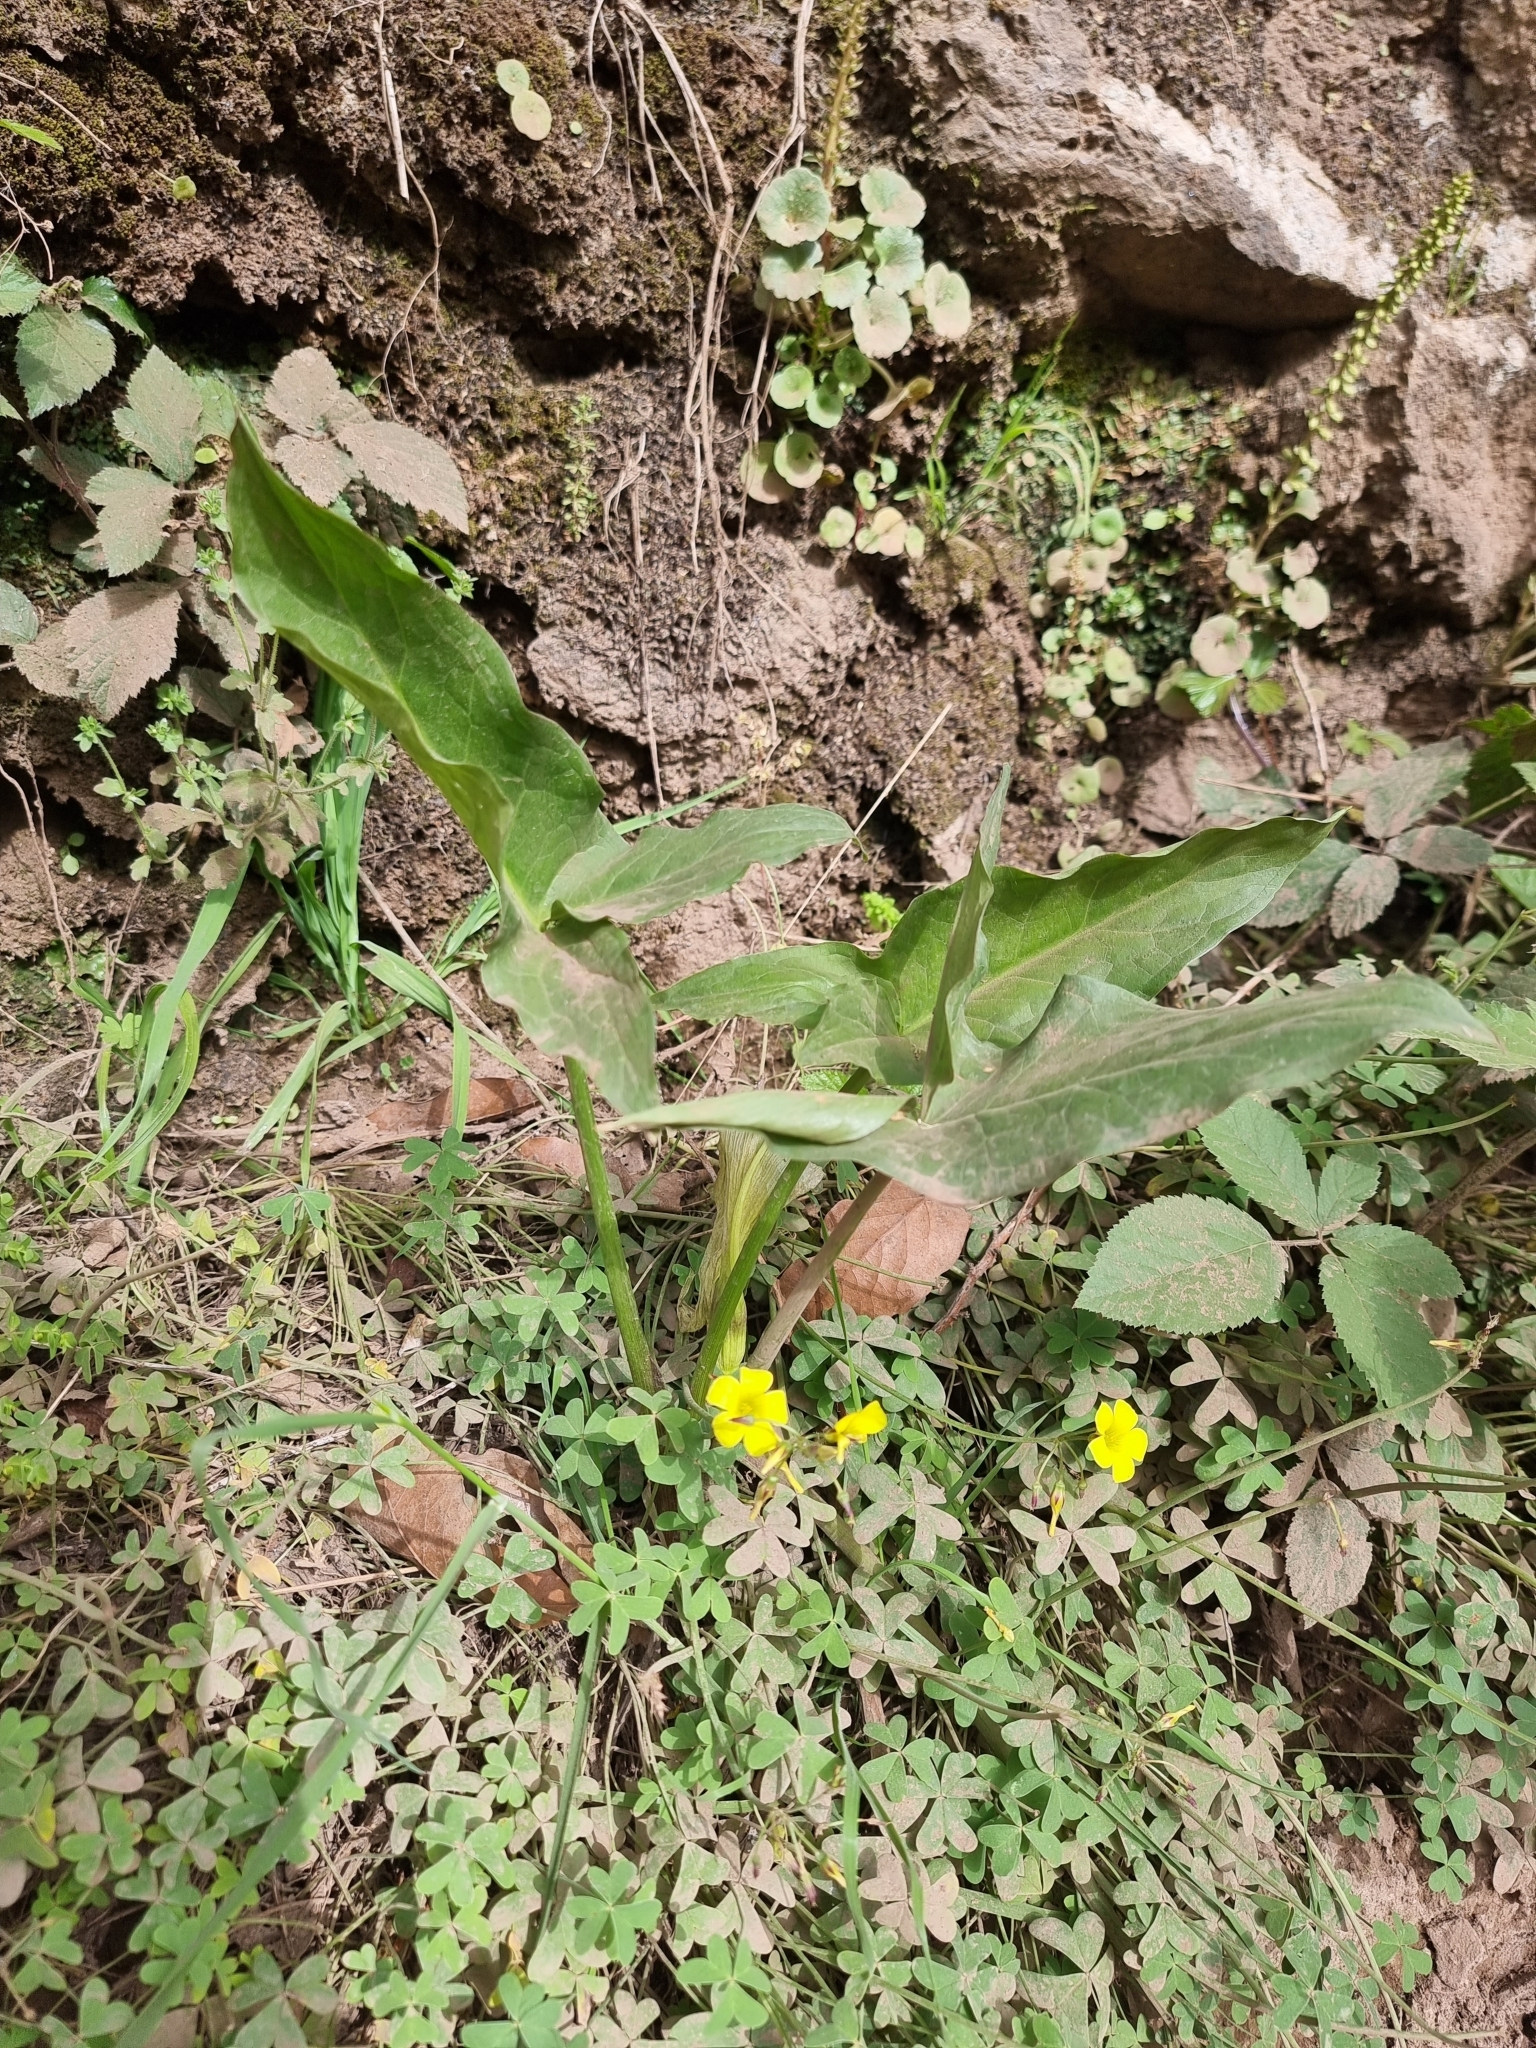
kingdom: Plantae
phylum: Tracheophyta
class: Liliopsida
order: Alismatales
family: Araceae
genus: Arum
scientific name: Arum italicum
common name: Italian lords-and-ladies
